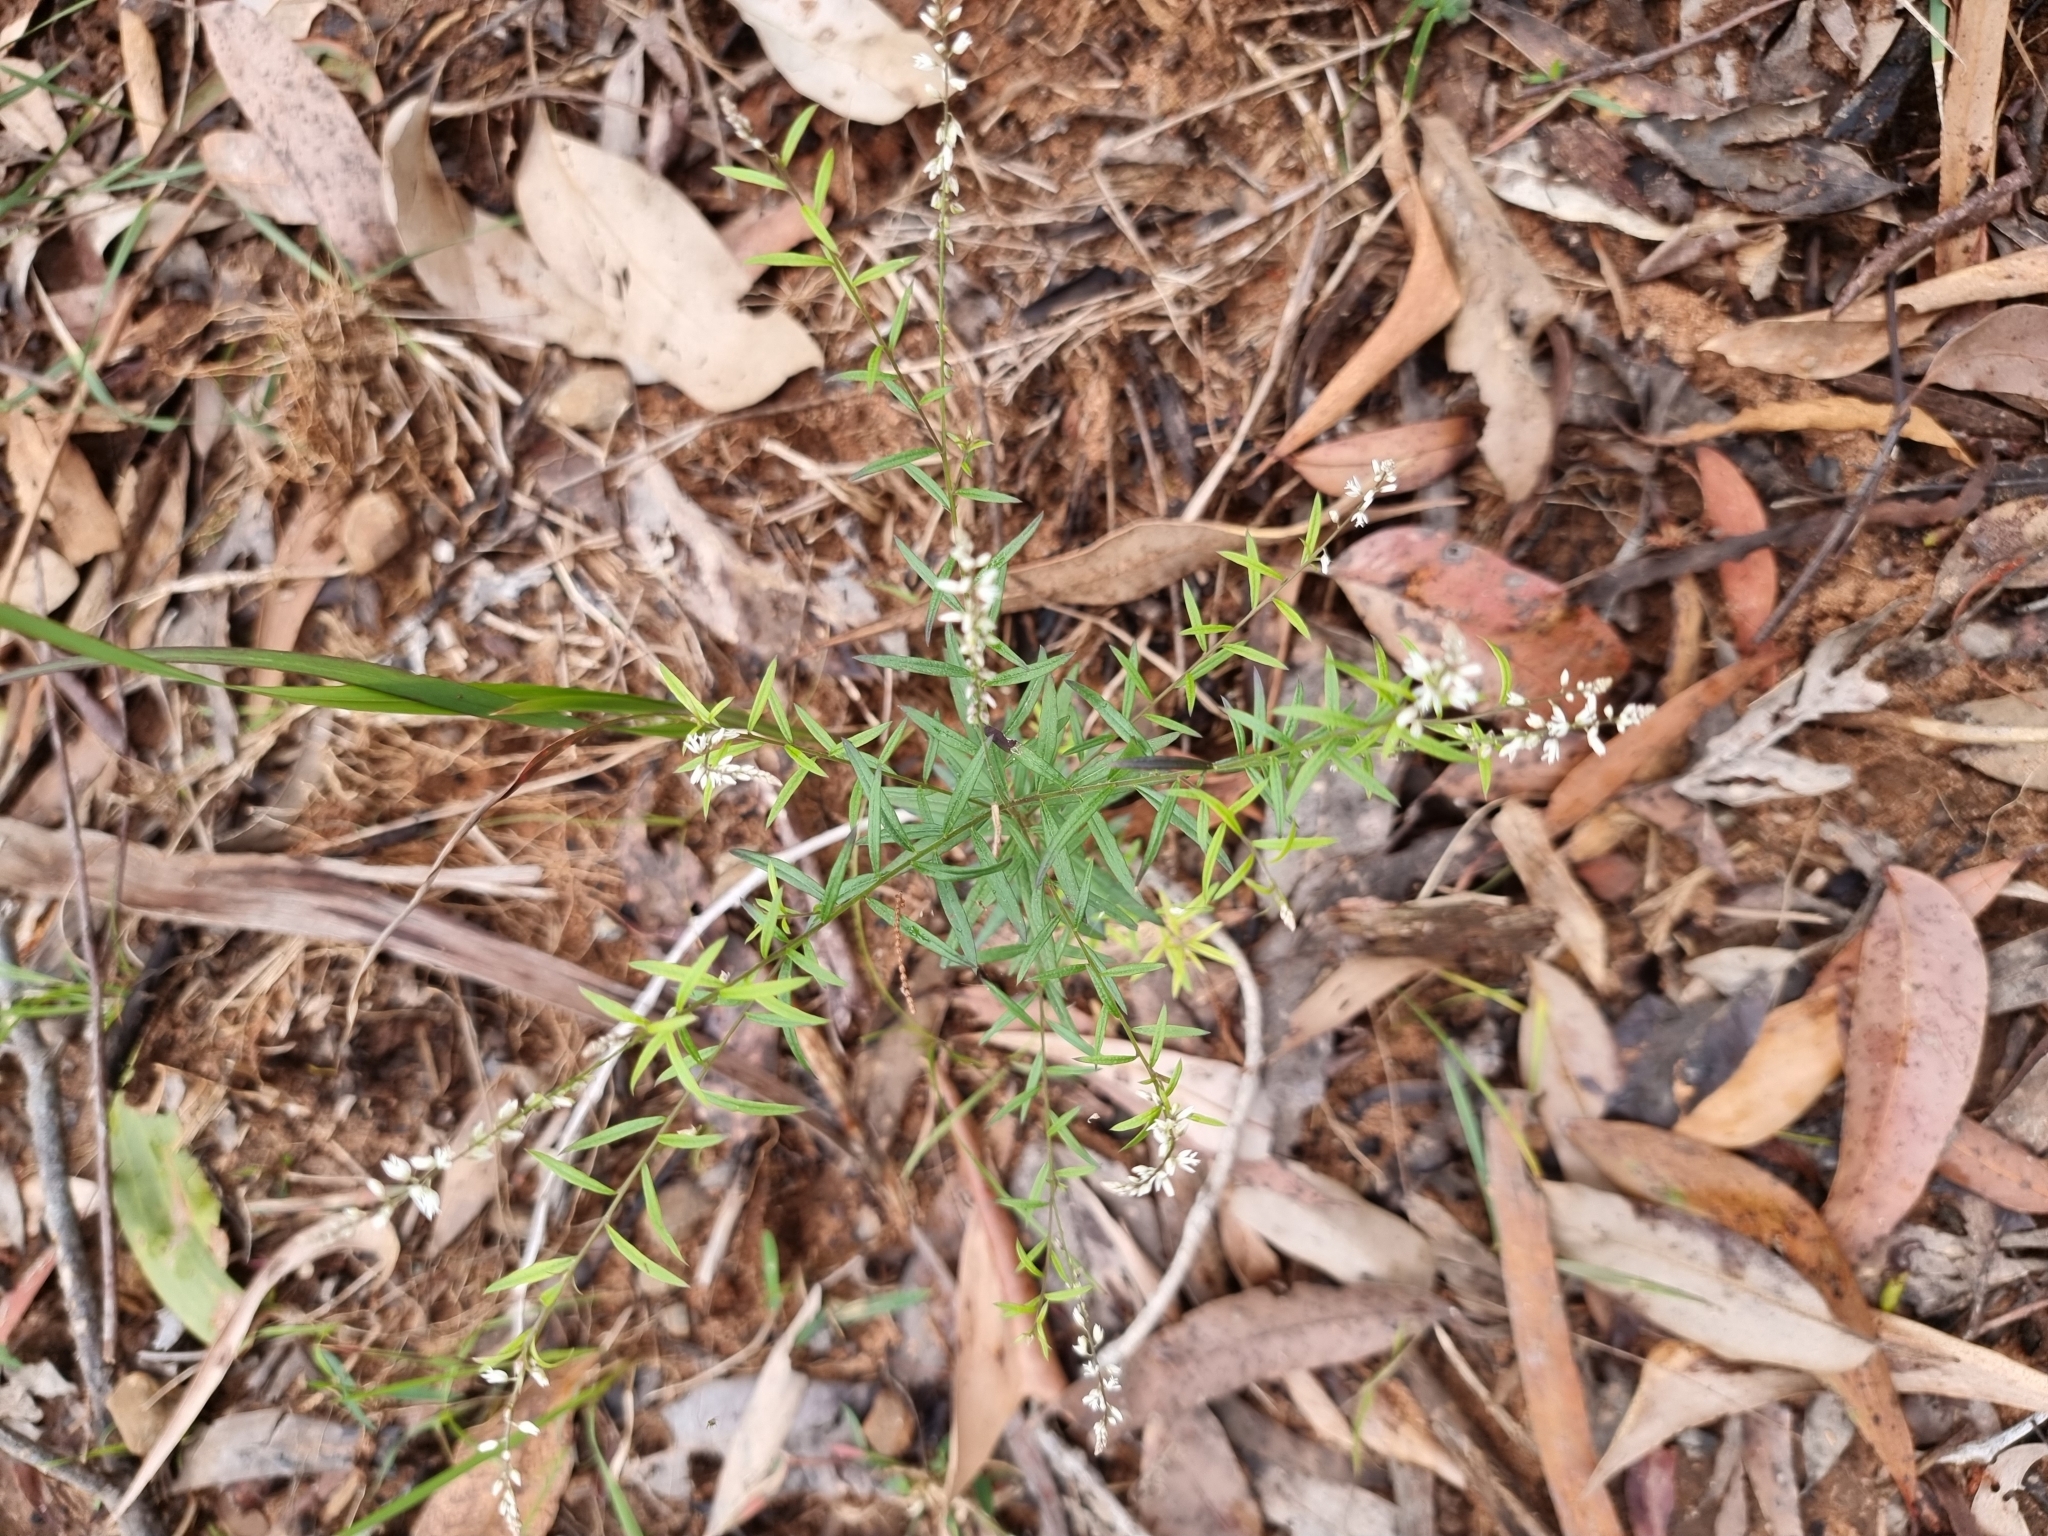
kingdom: Plantae
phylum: Tracheophyta
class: Magnoliopsida
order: Fabales
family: Polygalaceae
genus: Polygala
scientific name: Polygala paniculata
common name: Orosne
